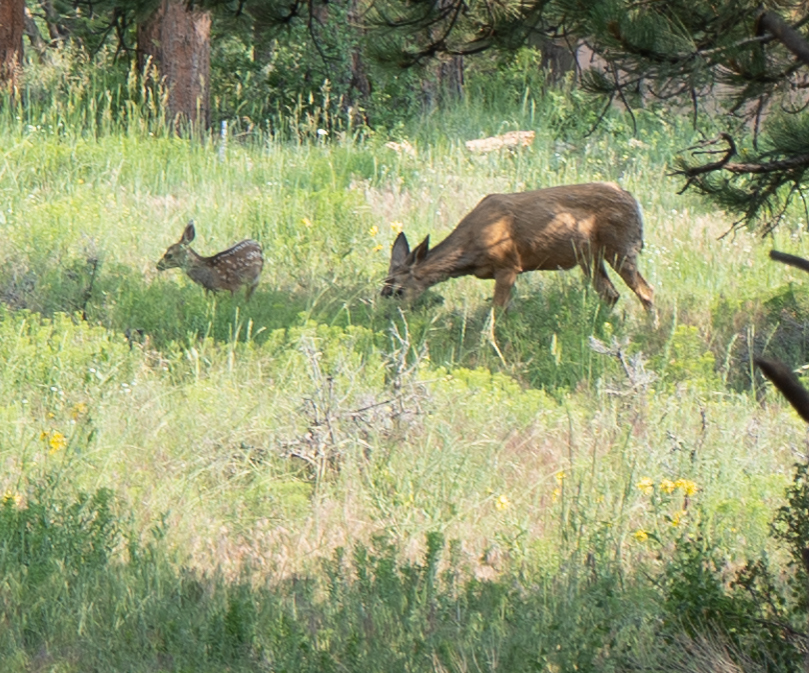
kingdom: Animalia
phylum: Chordata
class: Mammalia
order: Artiodactyla
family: Cervidae
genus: Odocoileus
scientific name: Odocoileus hemionus
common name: Mule deer
